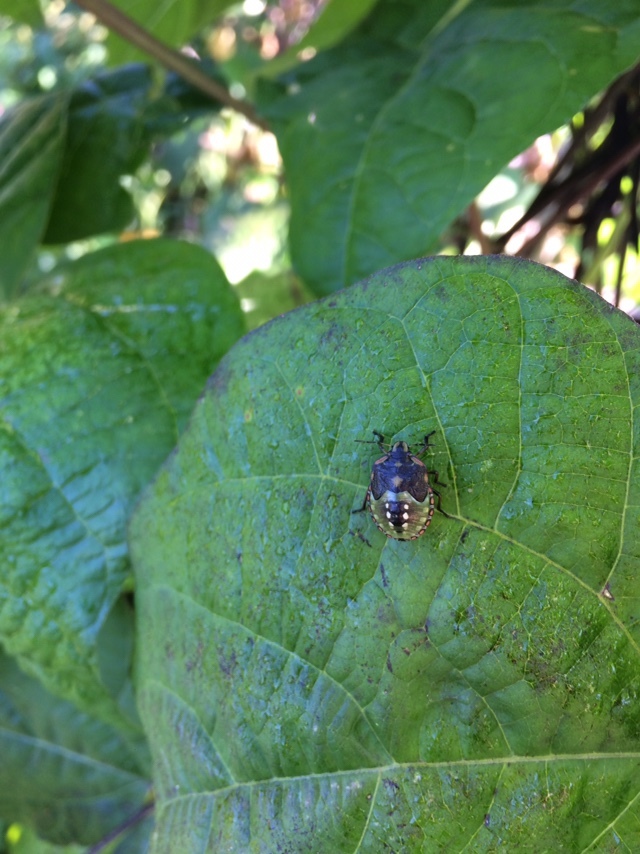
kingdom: Animalia
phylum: Arthropoda
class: Insecta
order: Hemiptera
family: Pentatomidae
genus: Nezara
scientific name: Nezara viridula
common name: Southern green stink bug
